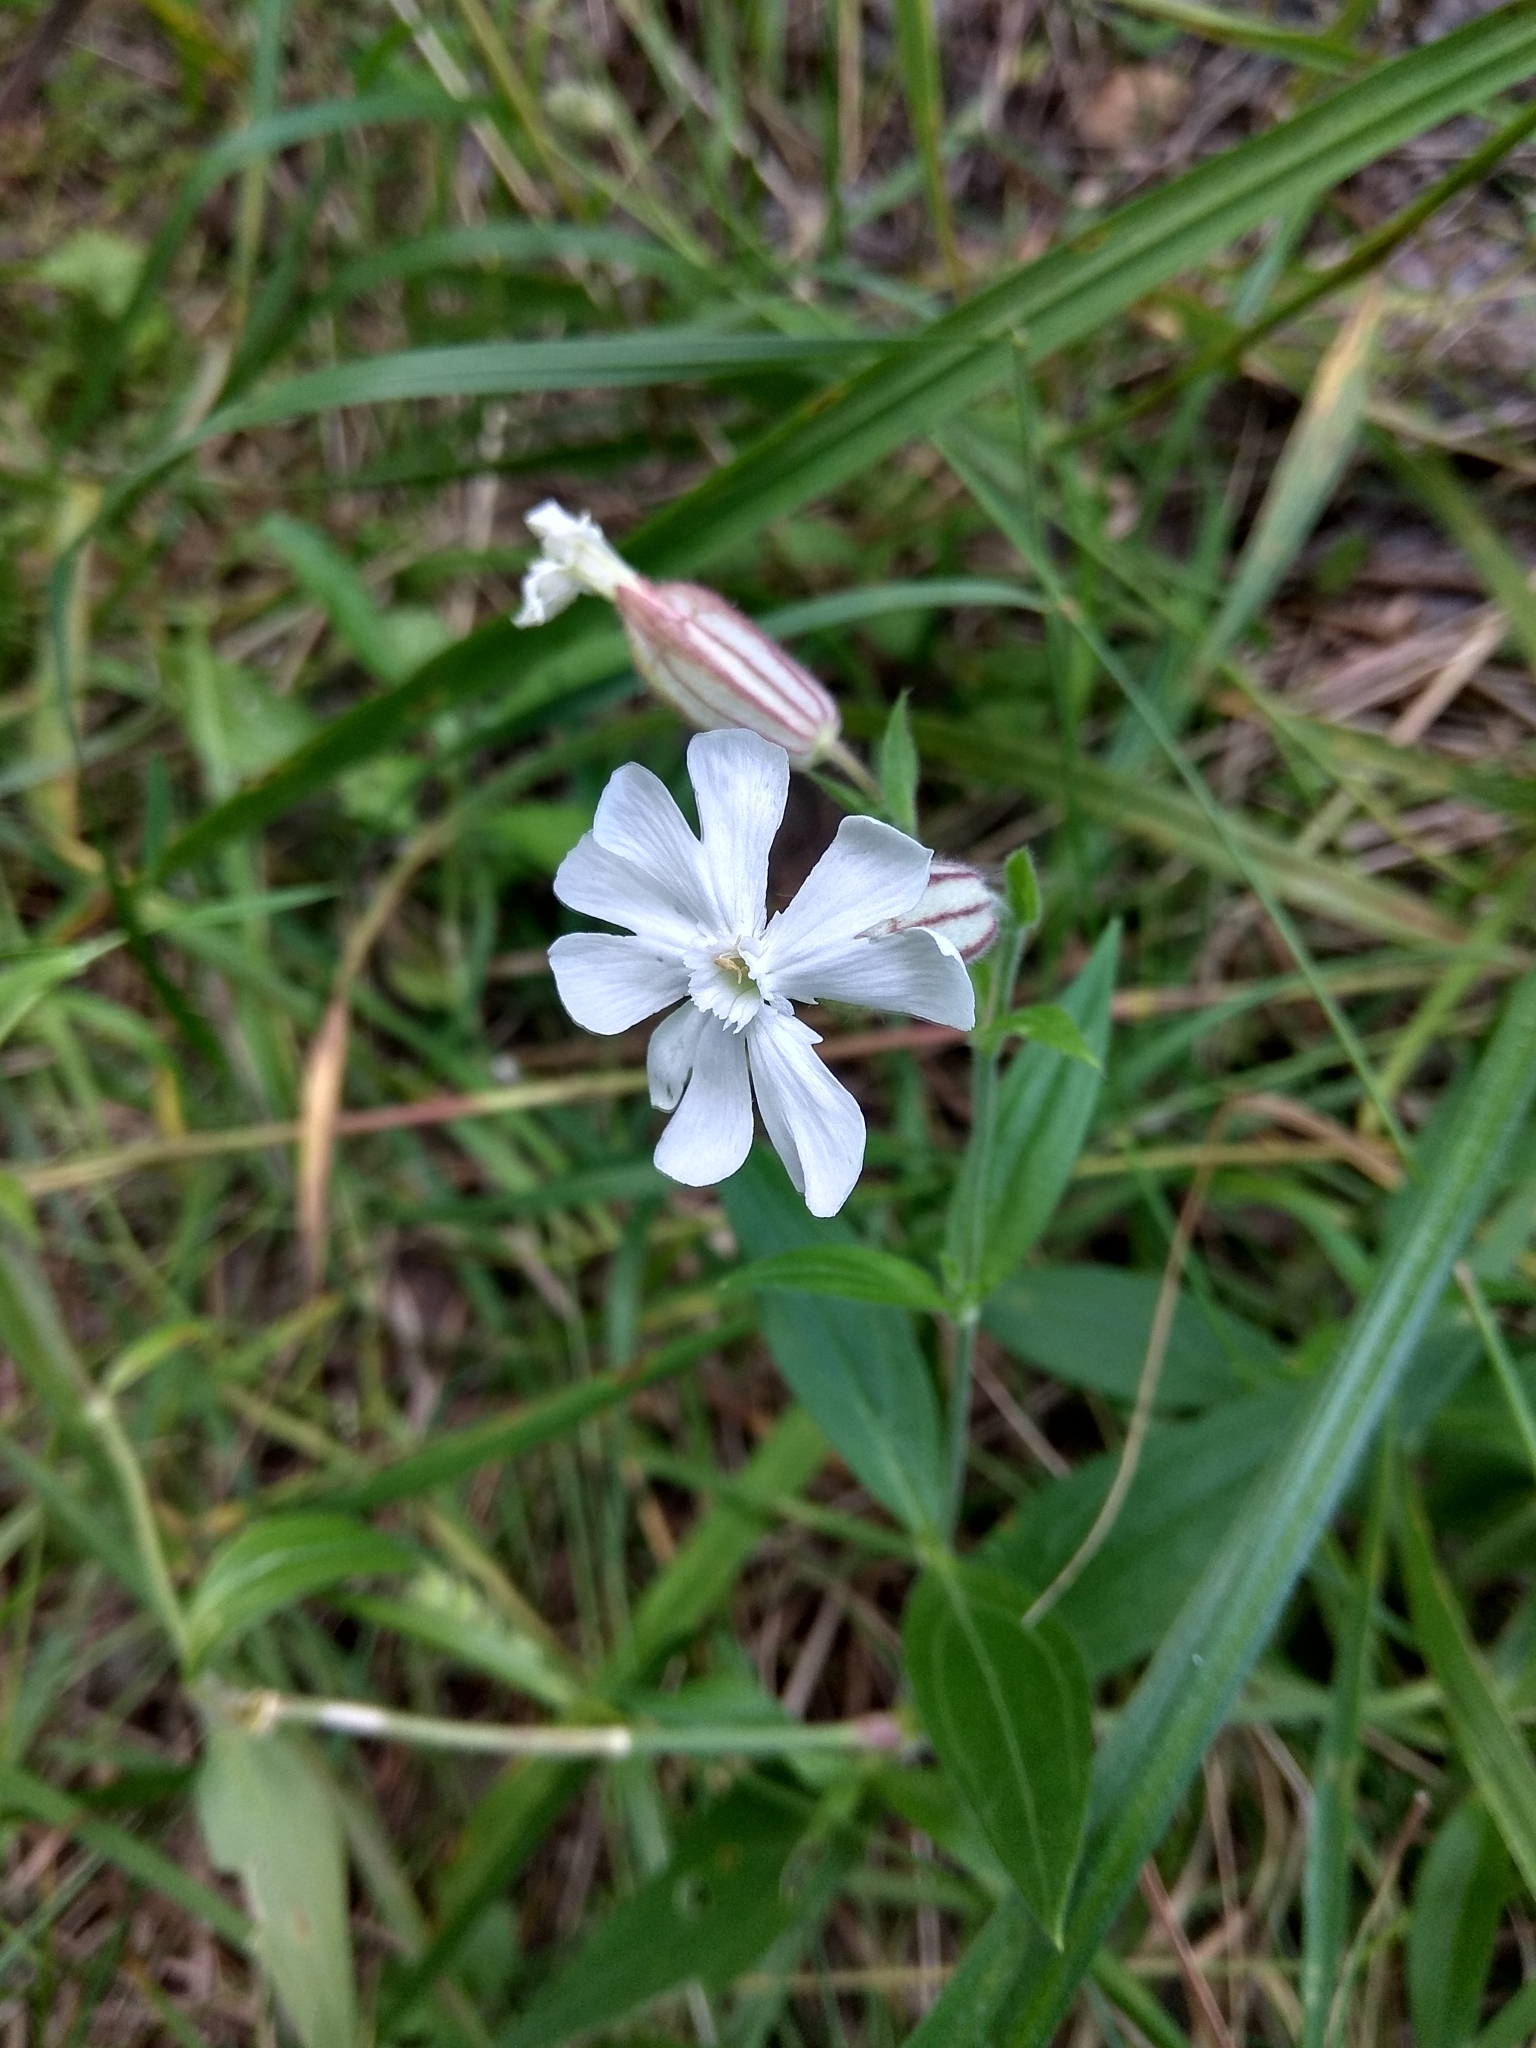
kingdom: Plantae
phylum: Tracheophyta
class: Magnoliopsida
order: Caryophyllales
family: Caryophyllaceae
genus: Silene
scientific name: Silene latifolia
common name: White campion
